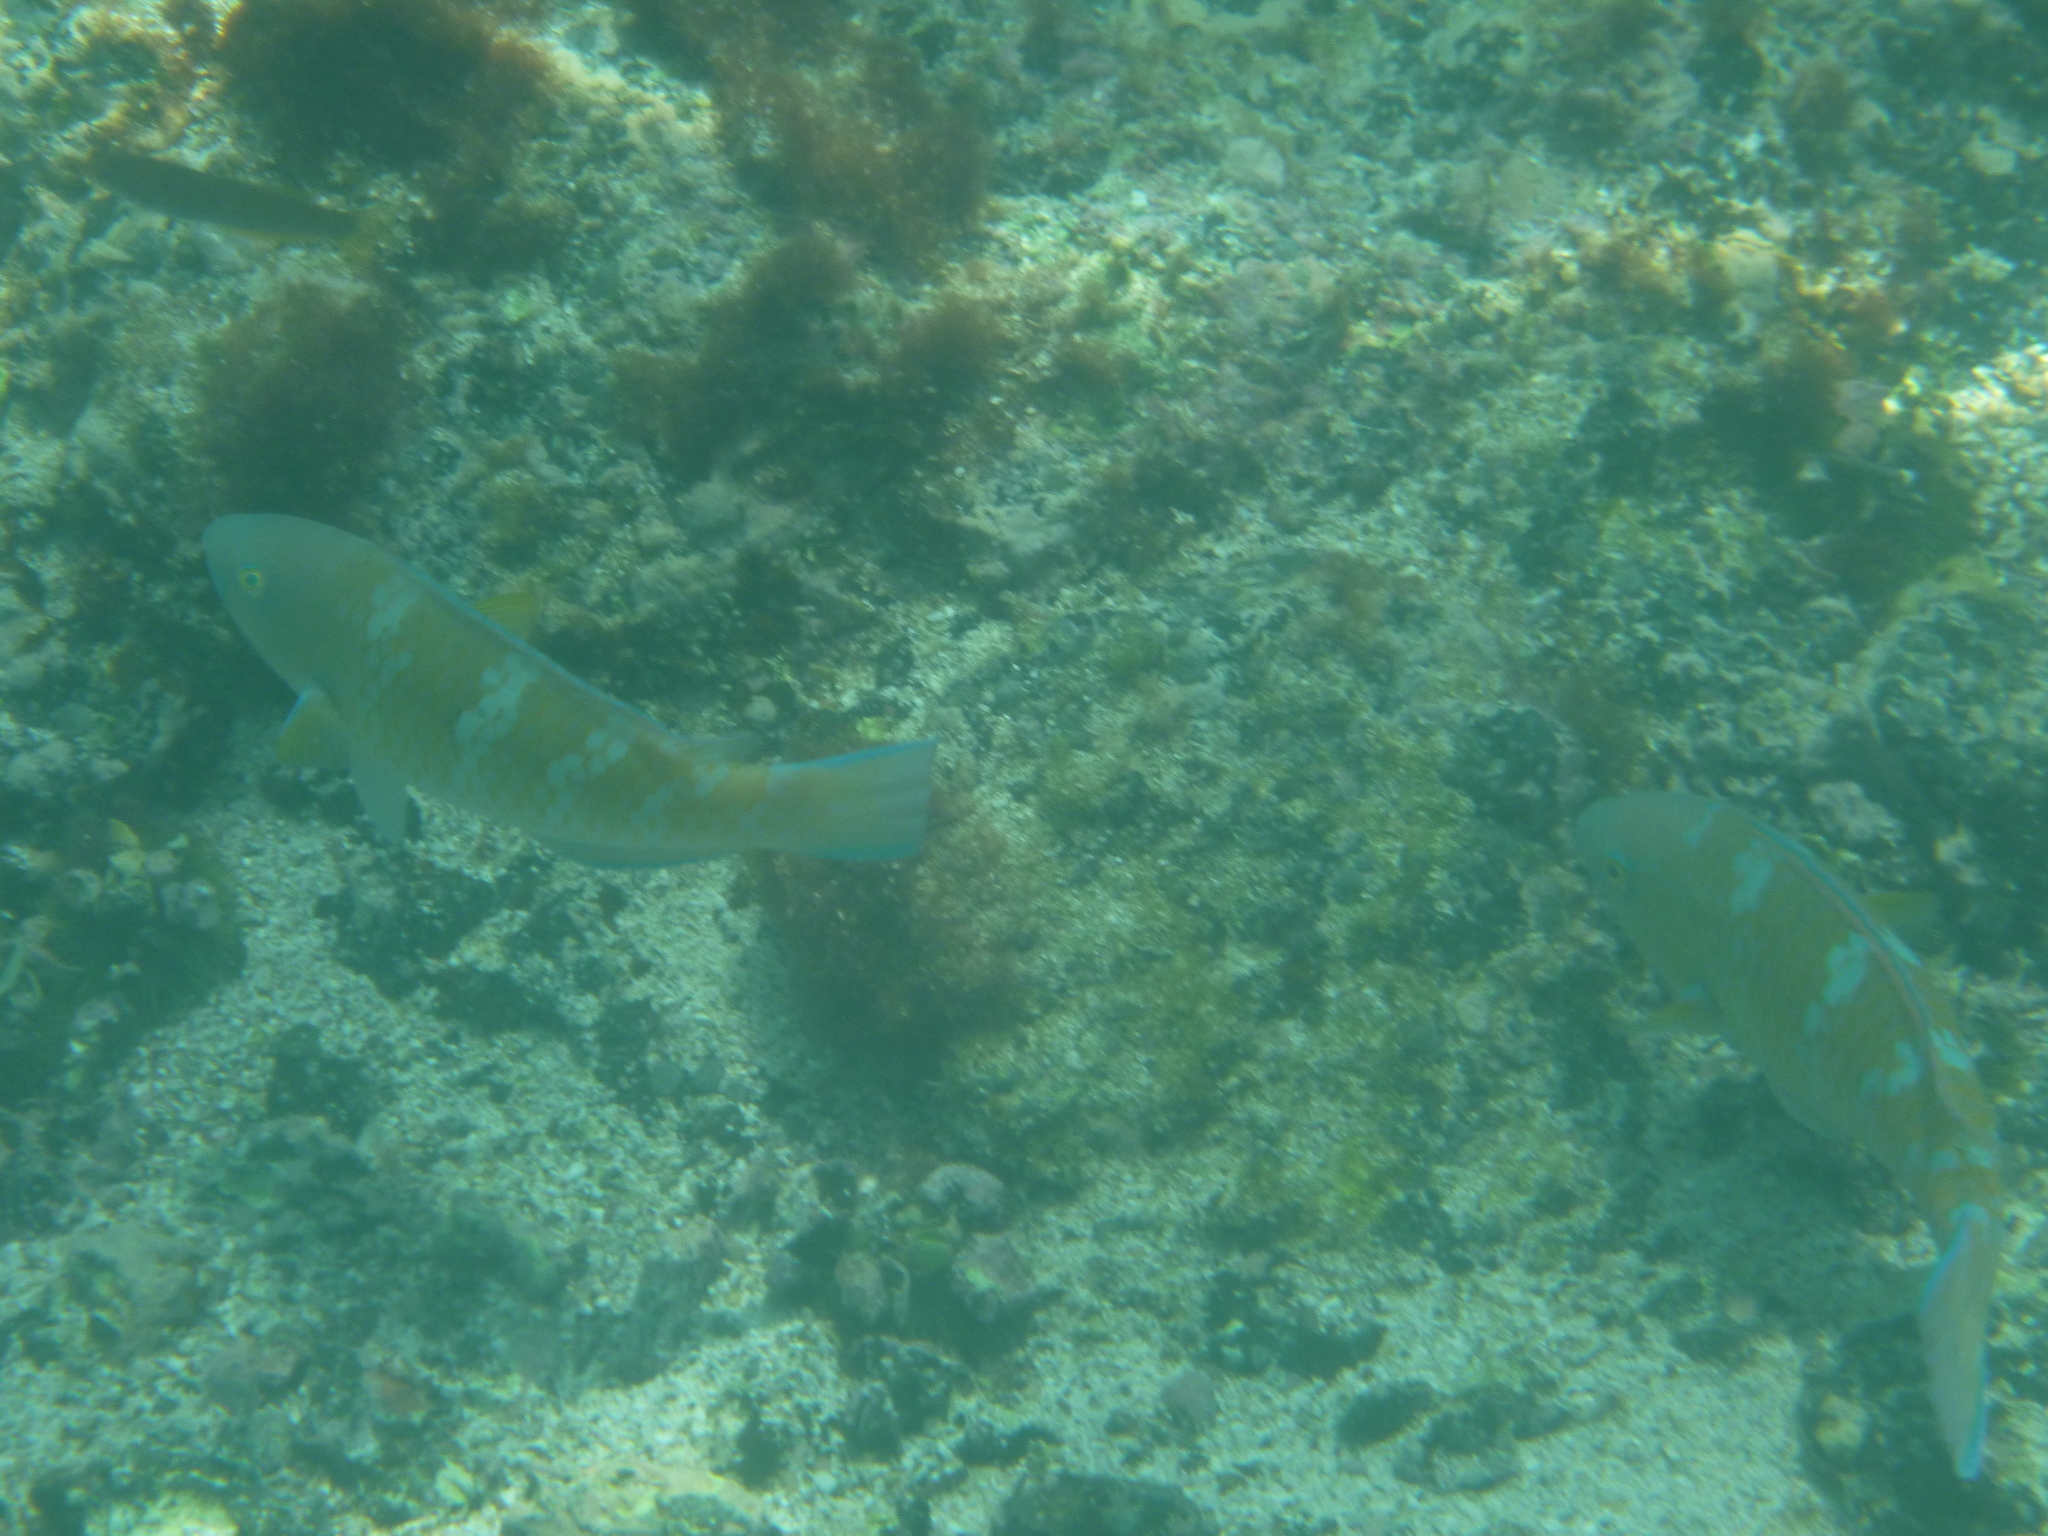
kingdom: Animalia
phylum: Chordata
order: Perciformes
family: Scaridae
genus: Scarus
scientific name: Scarus ghobban
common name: Blue-barred parrotfish
